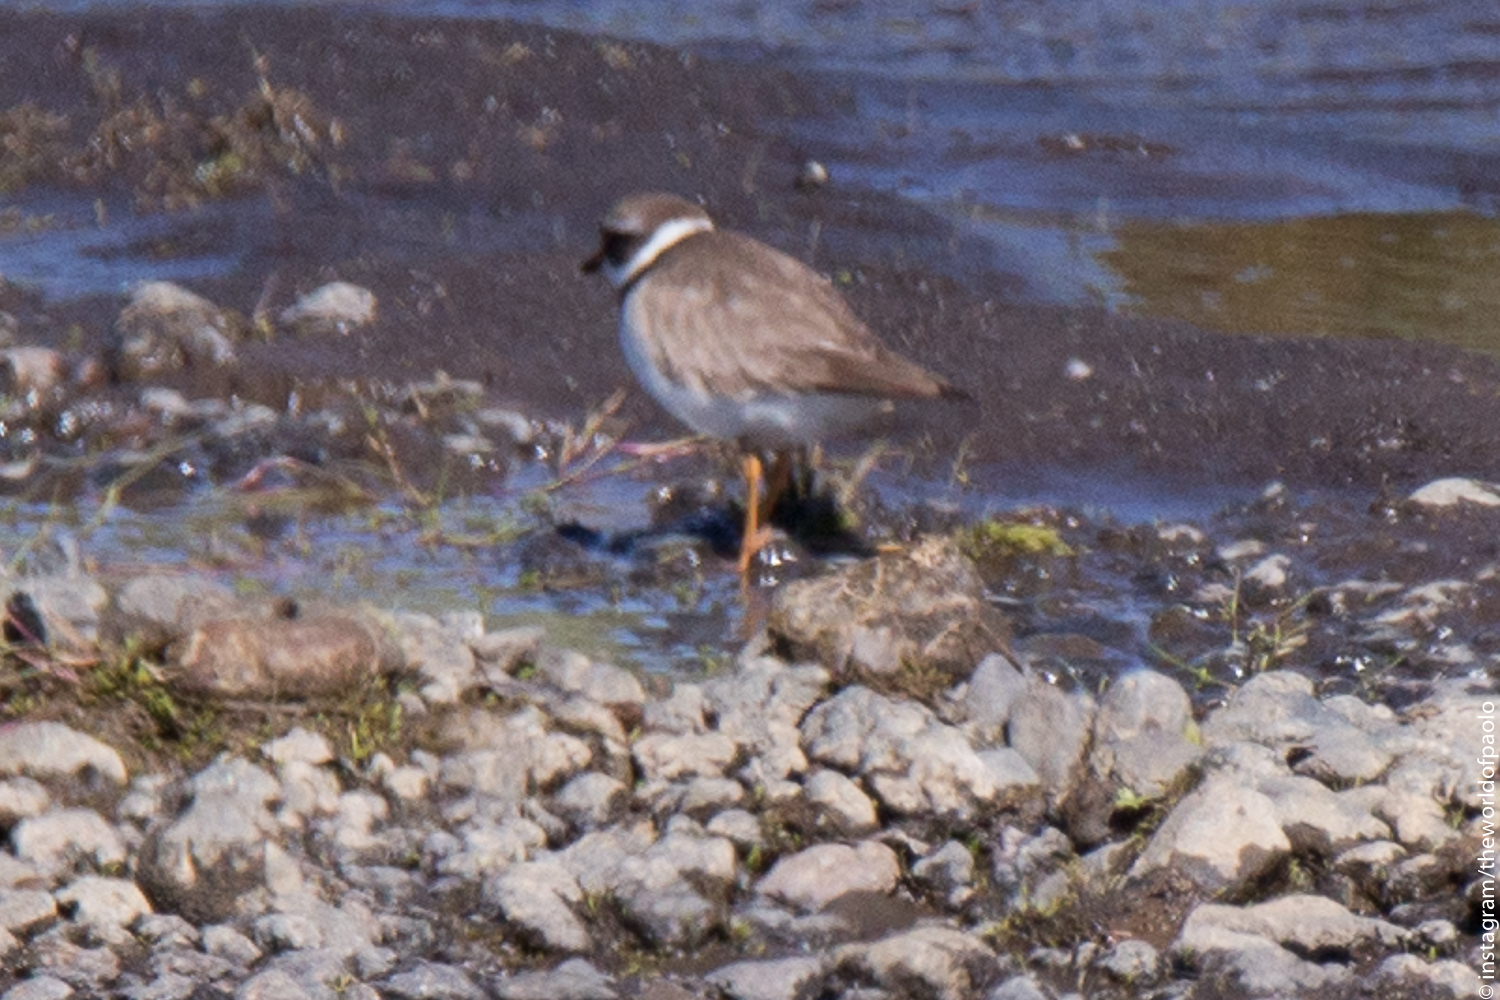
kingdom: Animalia
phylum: Chordata
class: Aves
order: Charadriiformes
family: Charadriidae
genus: Charadrius
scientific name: Charadrius hiaticula
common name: Common ringed plover
